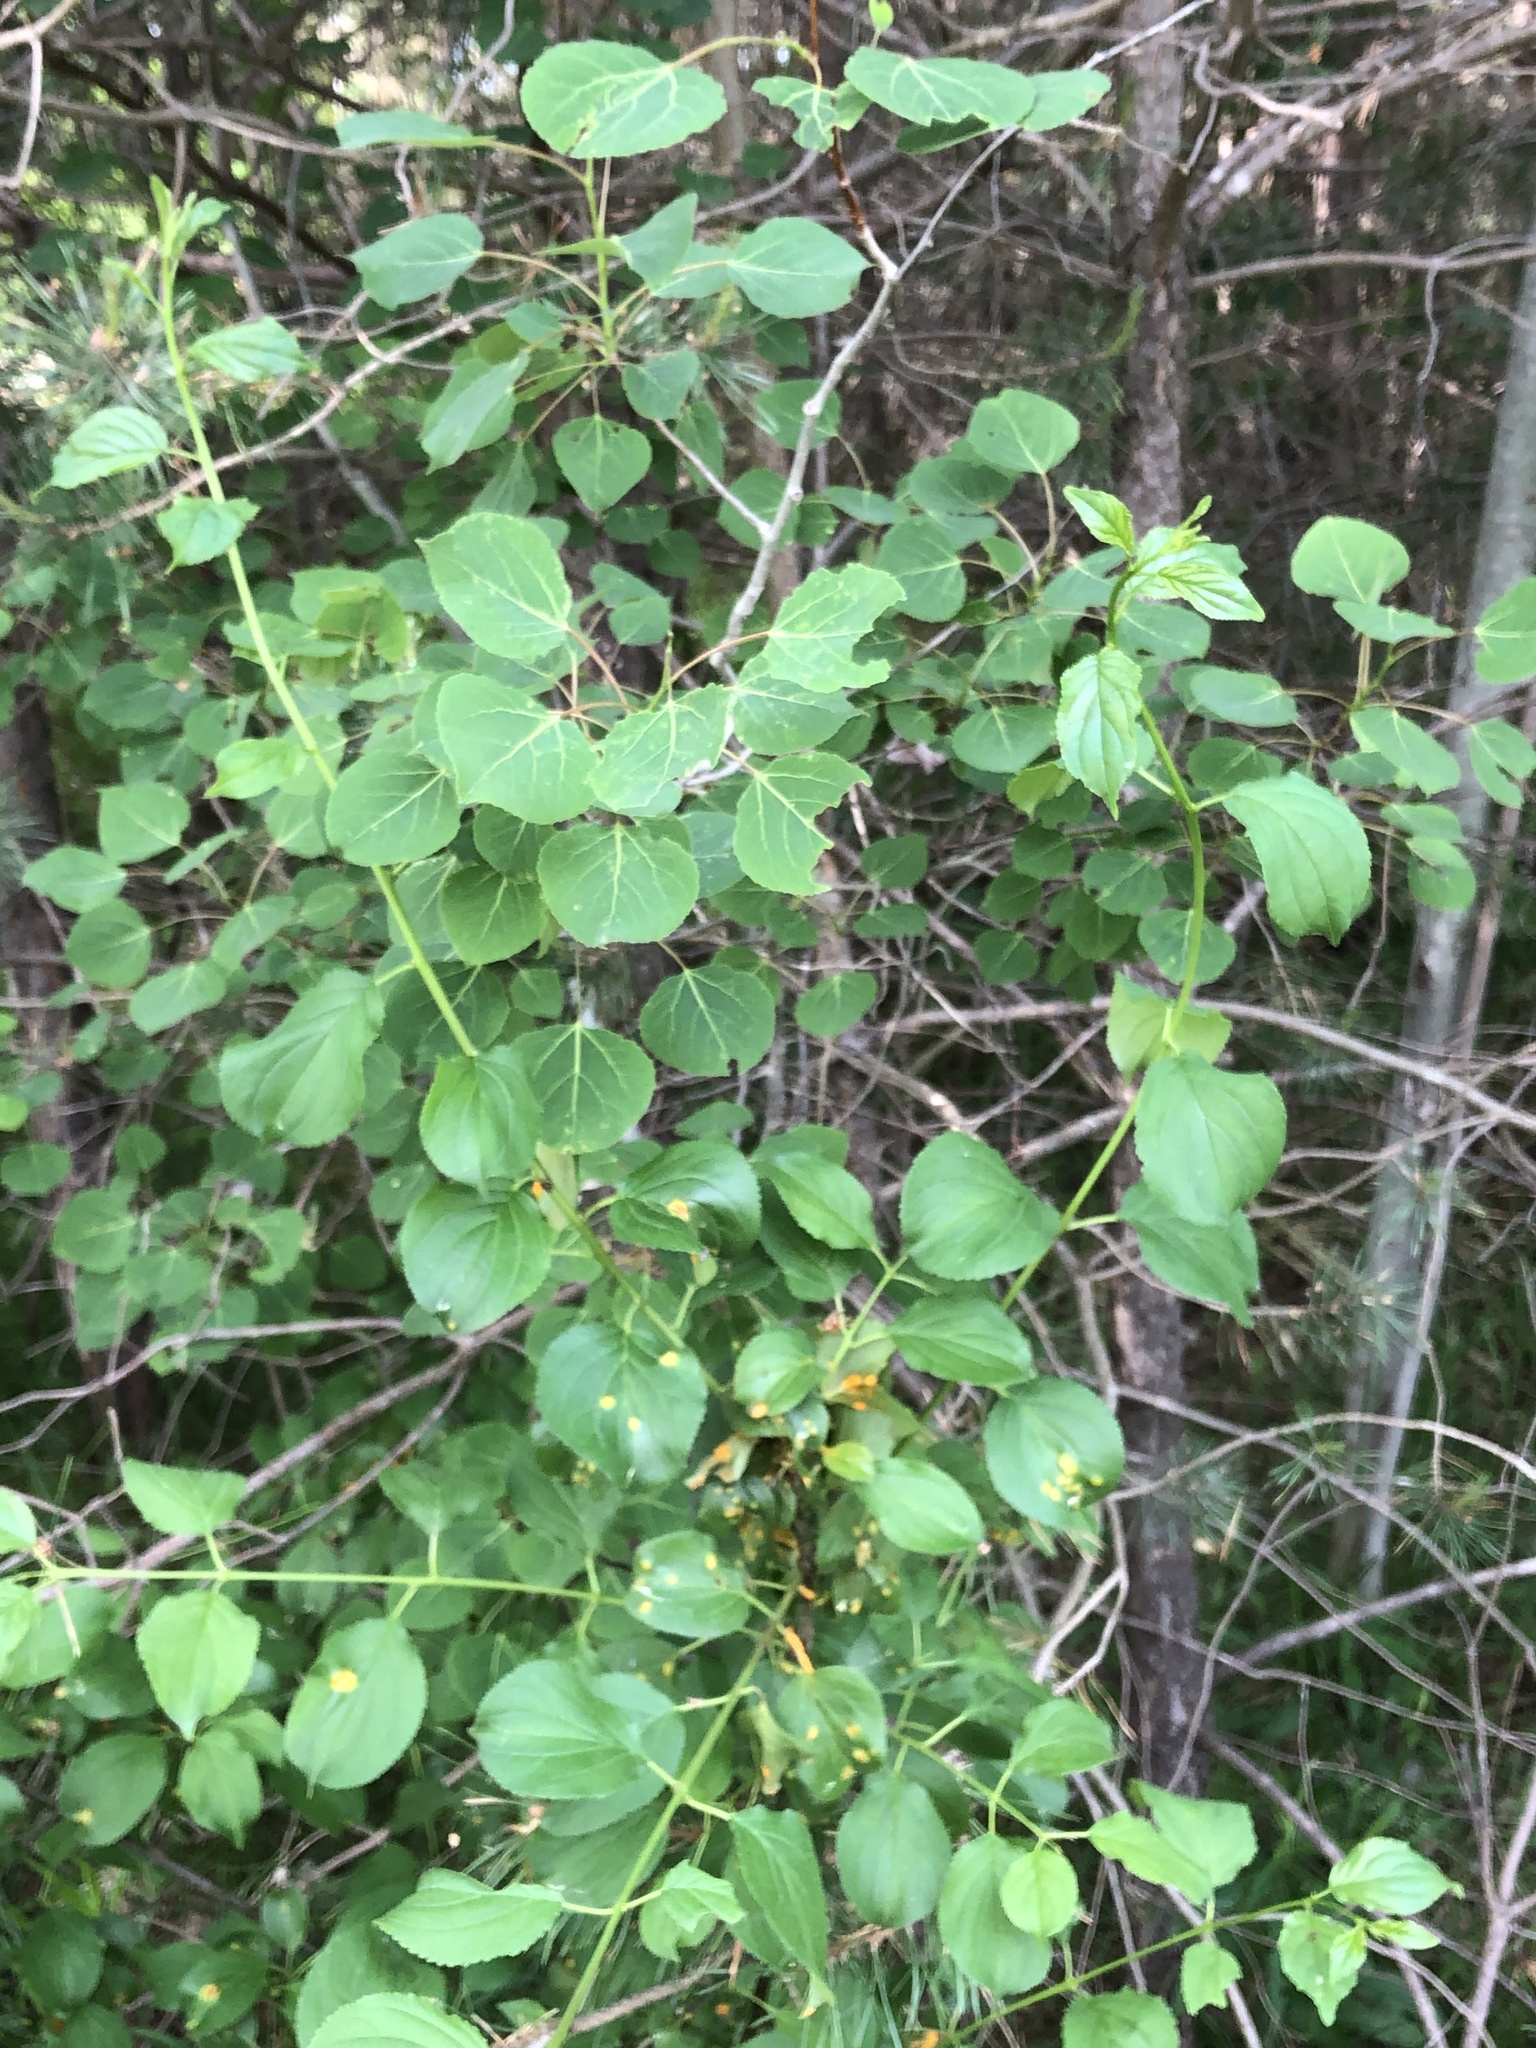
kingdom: Plantae
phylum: Tracheophyta
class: Magnoliopsida
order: Rosales
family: Rhamnaceae
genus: Rhamnus
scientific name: Rhamnus cathartica
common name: Common buckthorn
